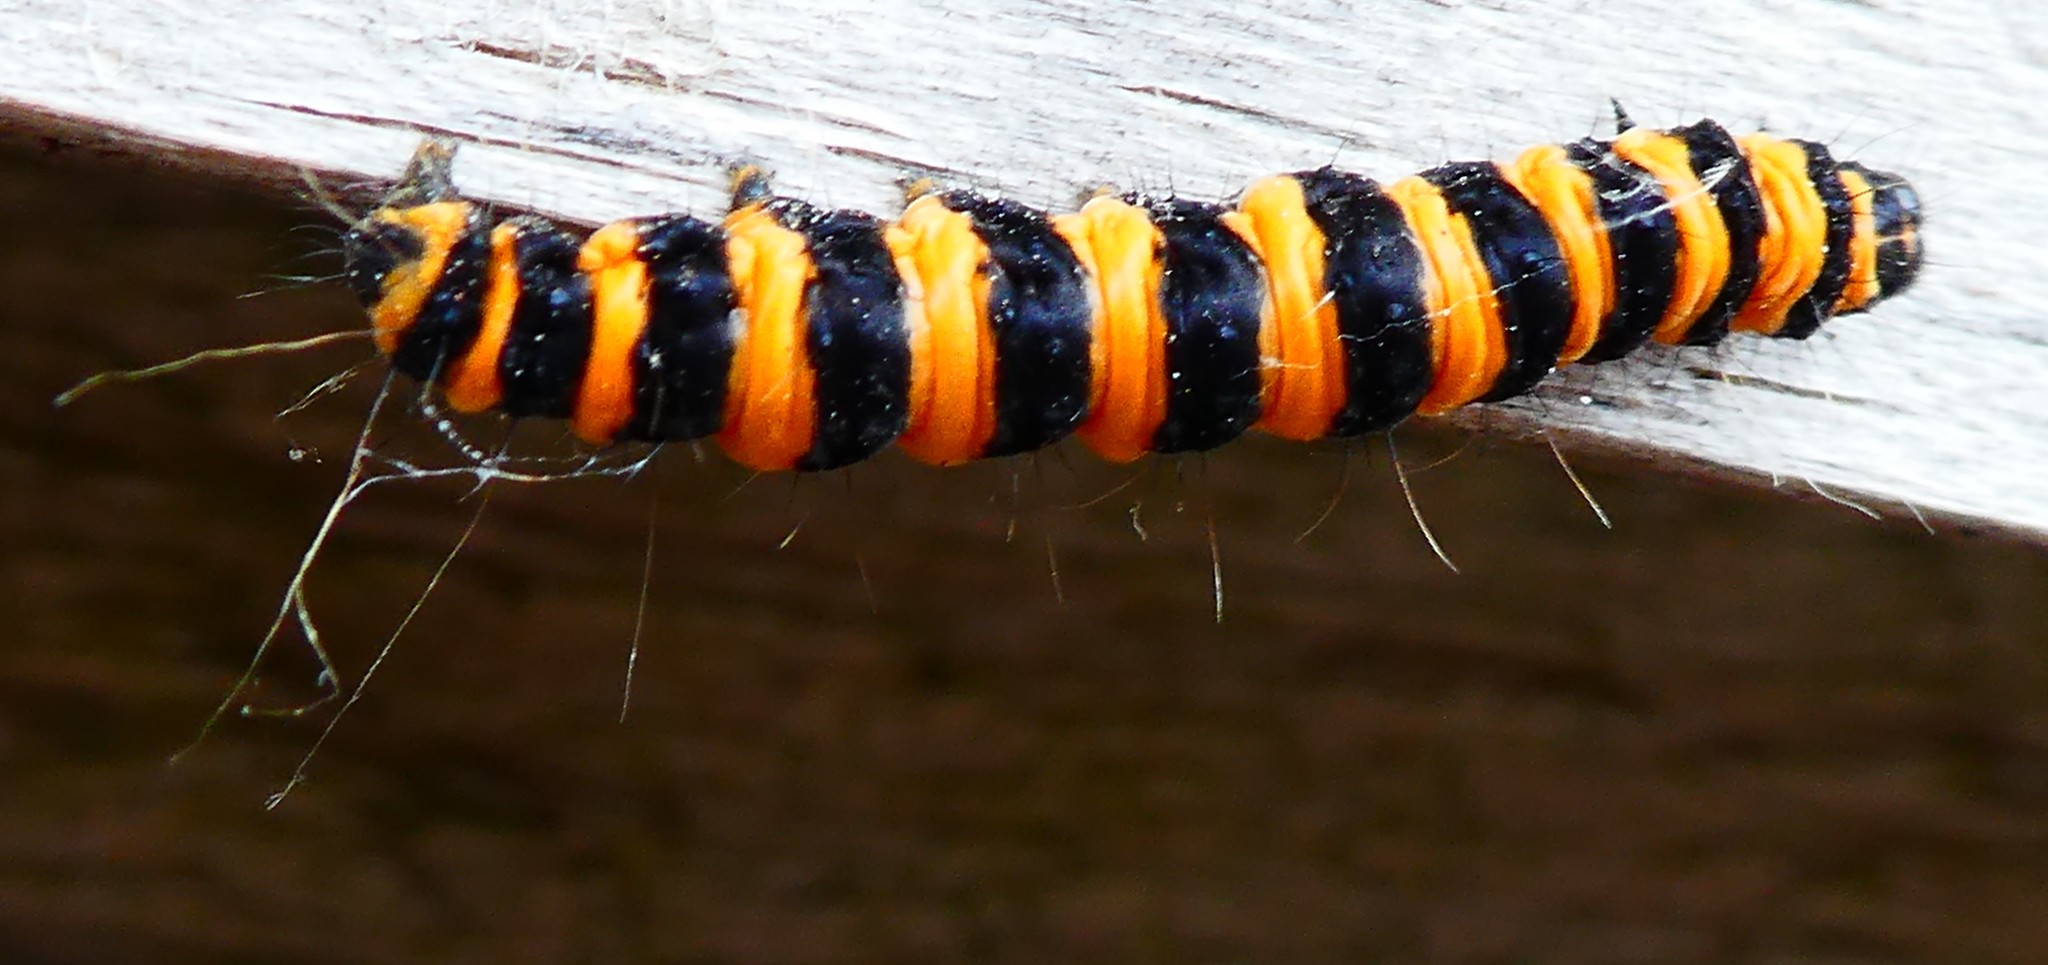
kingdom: Animalia
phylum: Arthropoda
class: Insecta
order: Lepidoptera
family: Erebidae
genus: Tyria
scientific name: Tyria jacobaeae
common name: Cinnabar
